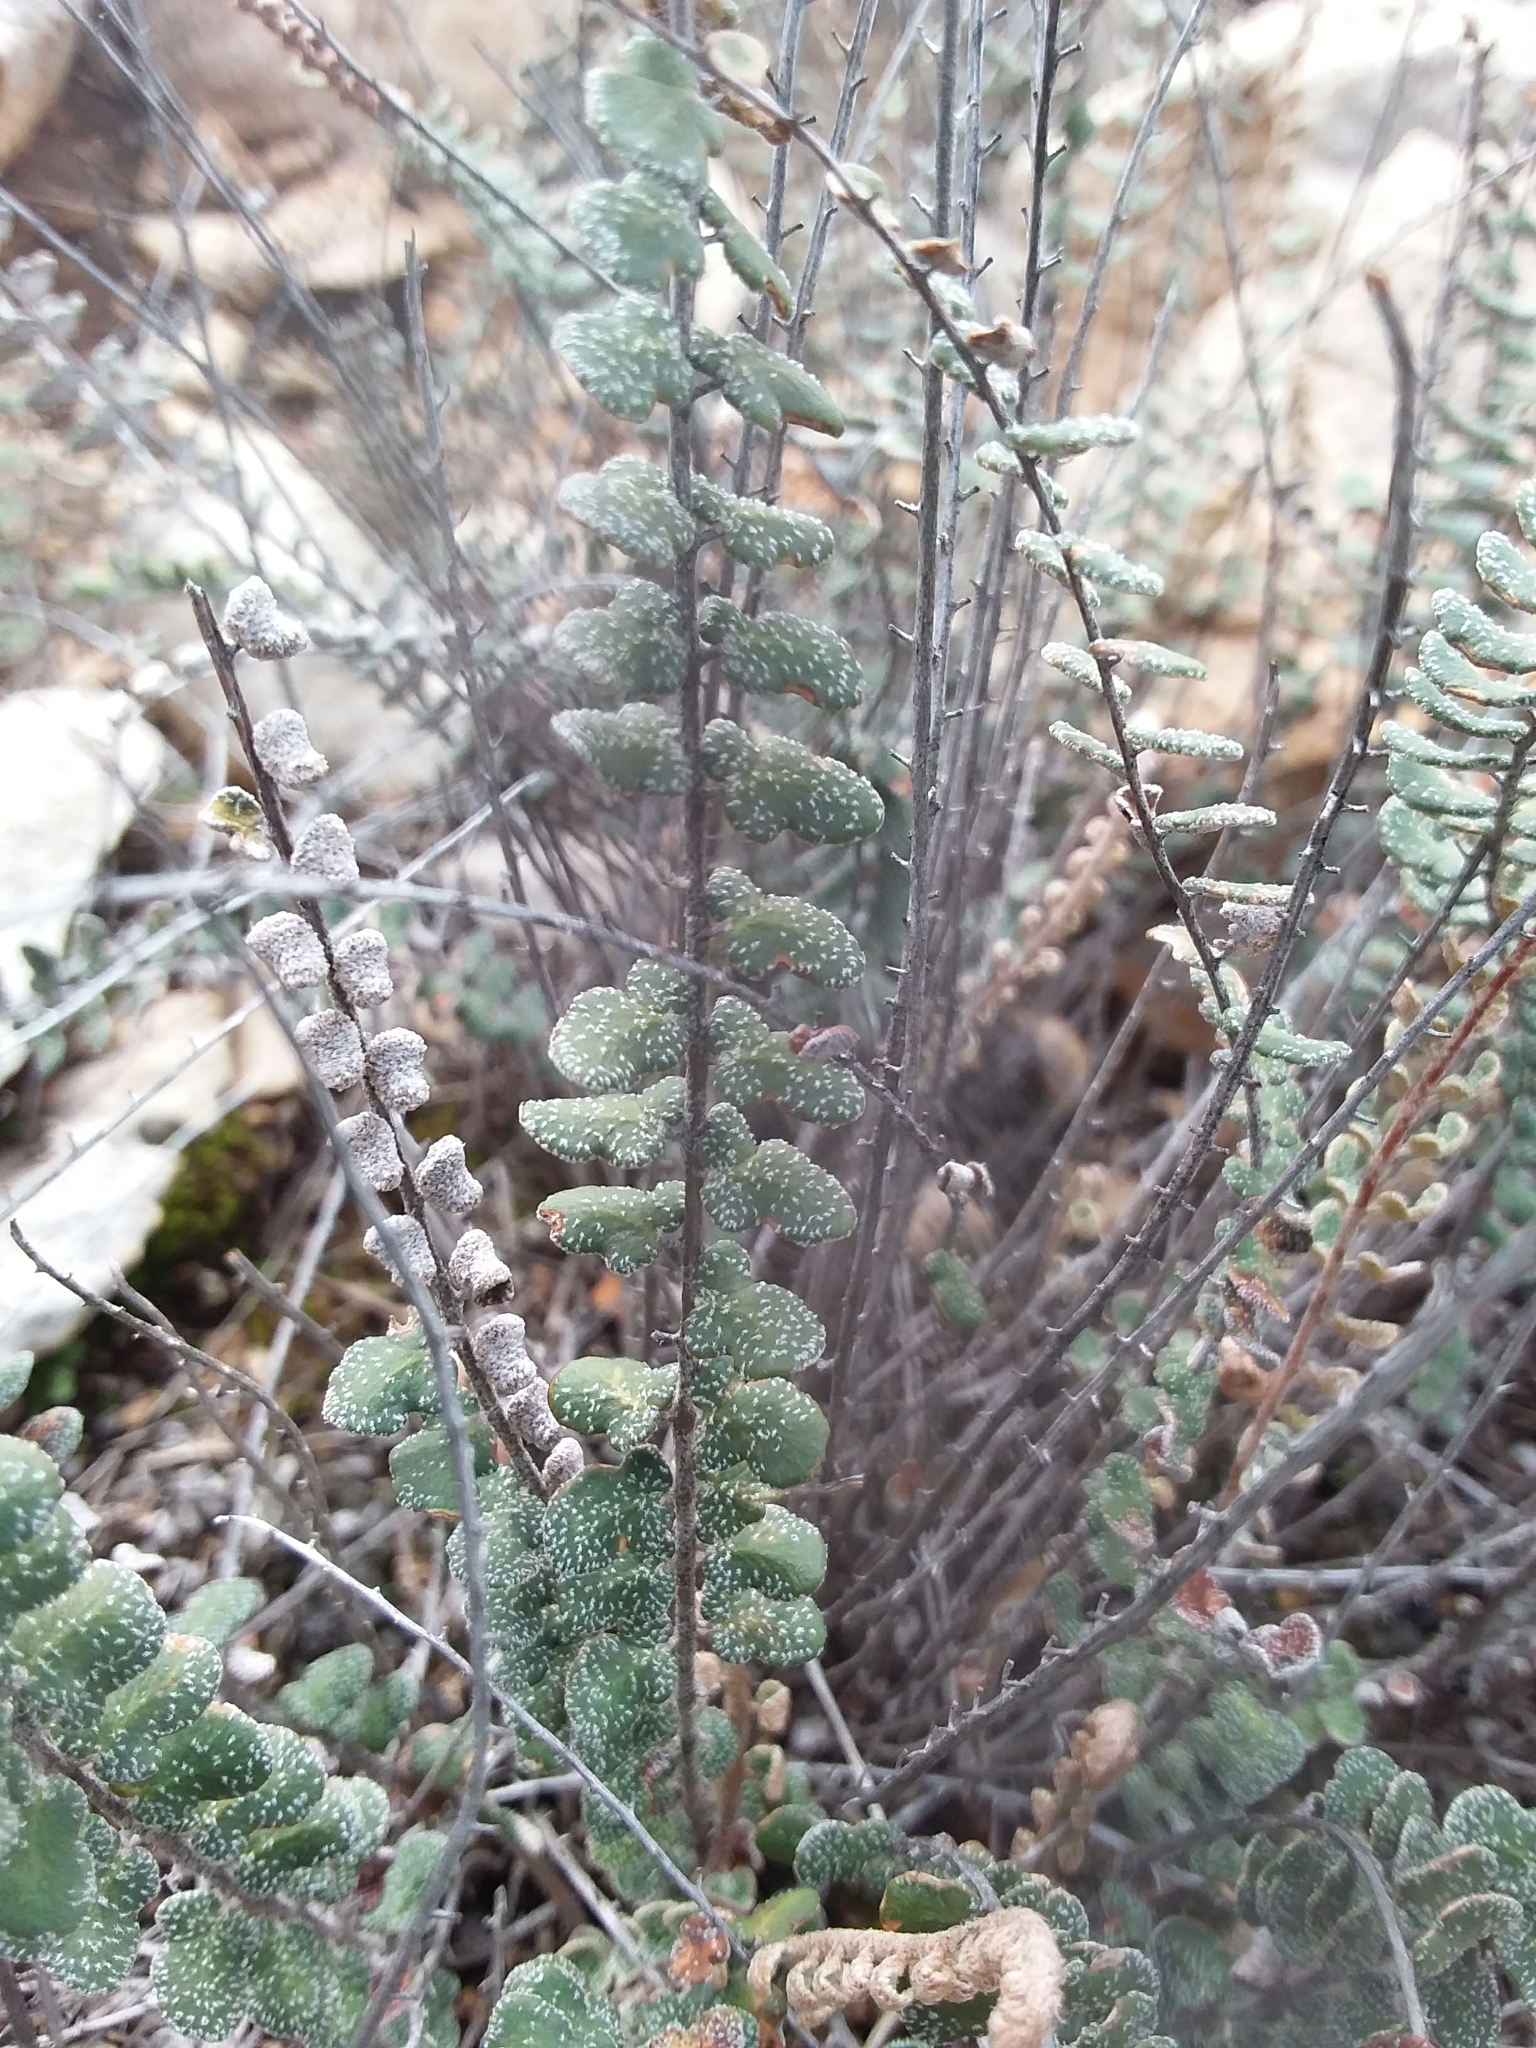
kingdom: Plantae
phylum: Tracheophyta
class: Polypodiopsida
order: Polypodiales
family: Pteridaceae
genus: Astrolepis
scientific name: Astrolepis integerrima
